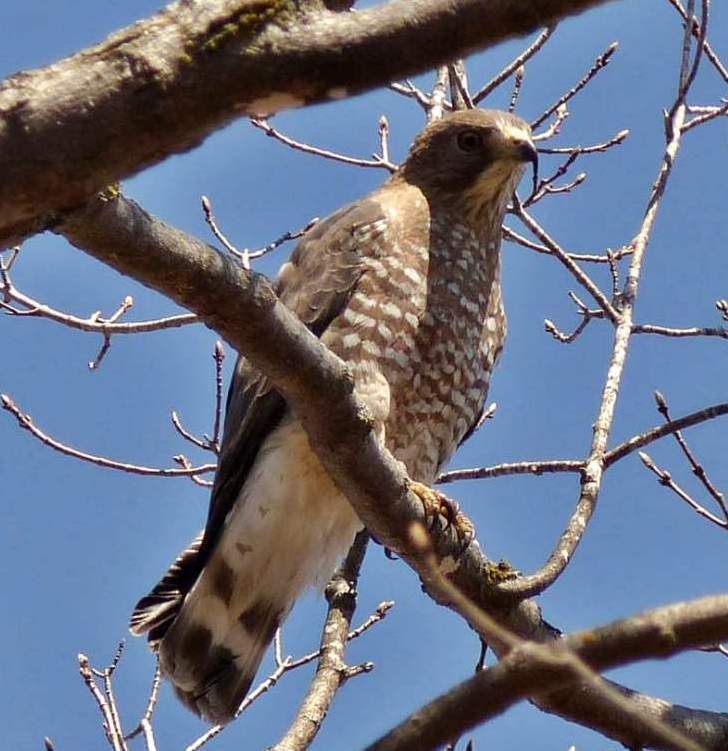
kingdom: Animalia
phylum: Chordata
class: Aves
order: Accipitriformes
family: Accipitridae
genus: Buteo
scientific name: Buteo platypterus
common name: Broad-winged hawk
